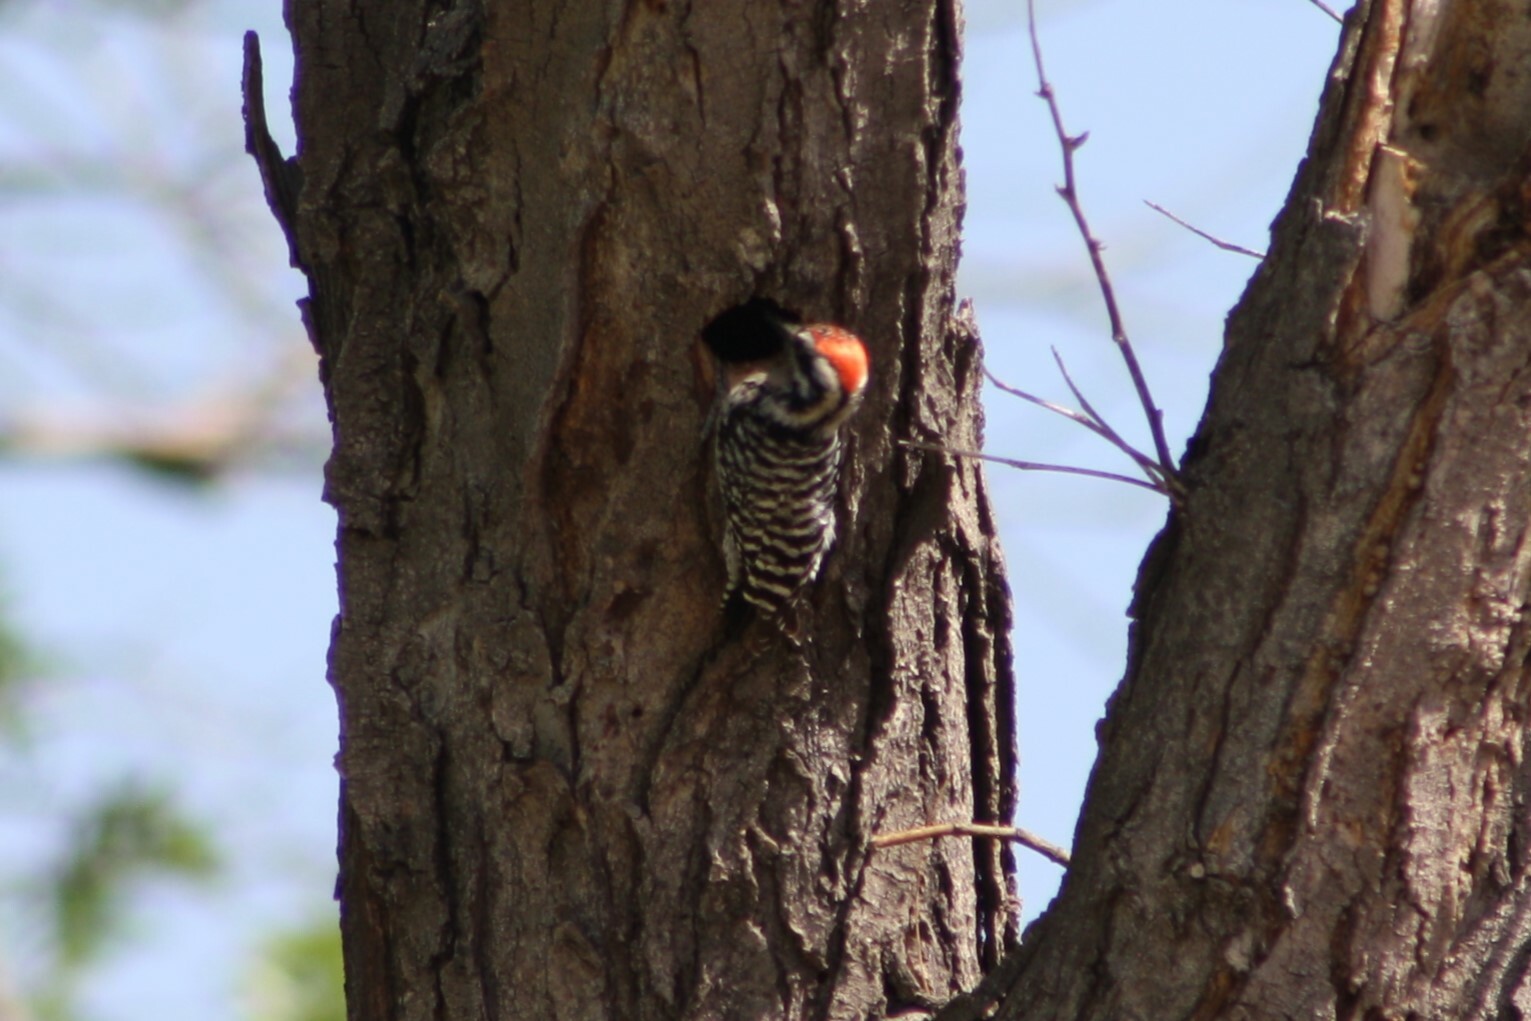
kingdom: Animalia
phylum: Chordata
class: Aves
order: Piciformes
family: Picidae
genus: Dryobates
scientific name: Dryobates scalaris
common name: Ladder-backed woodpecker
